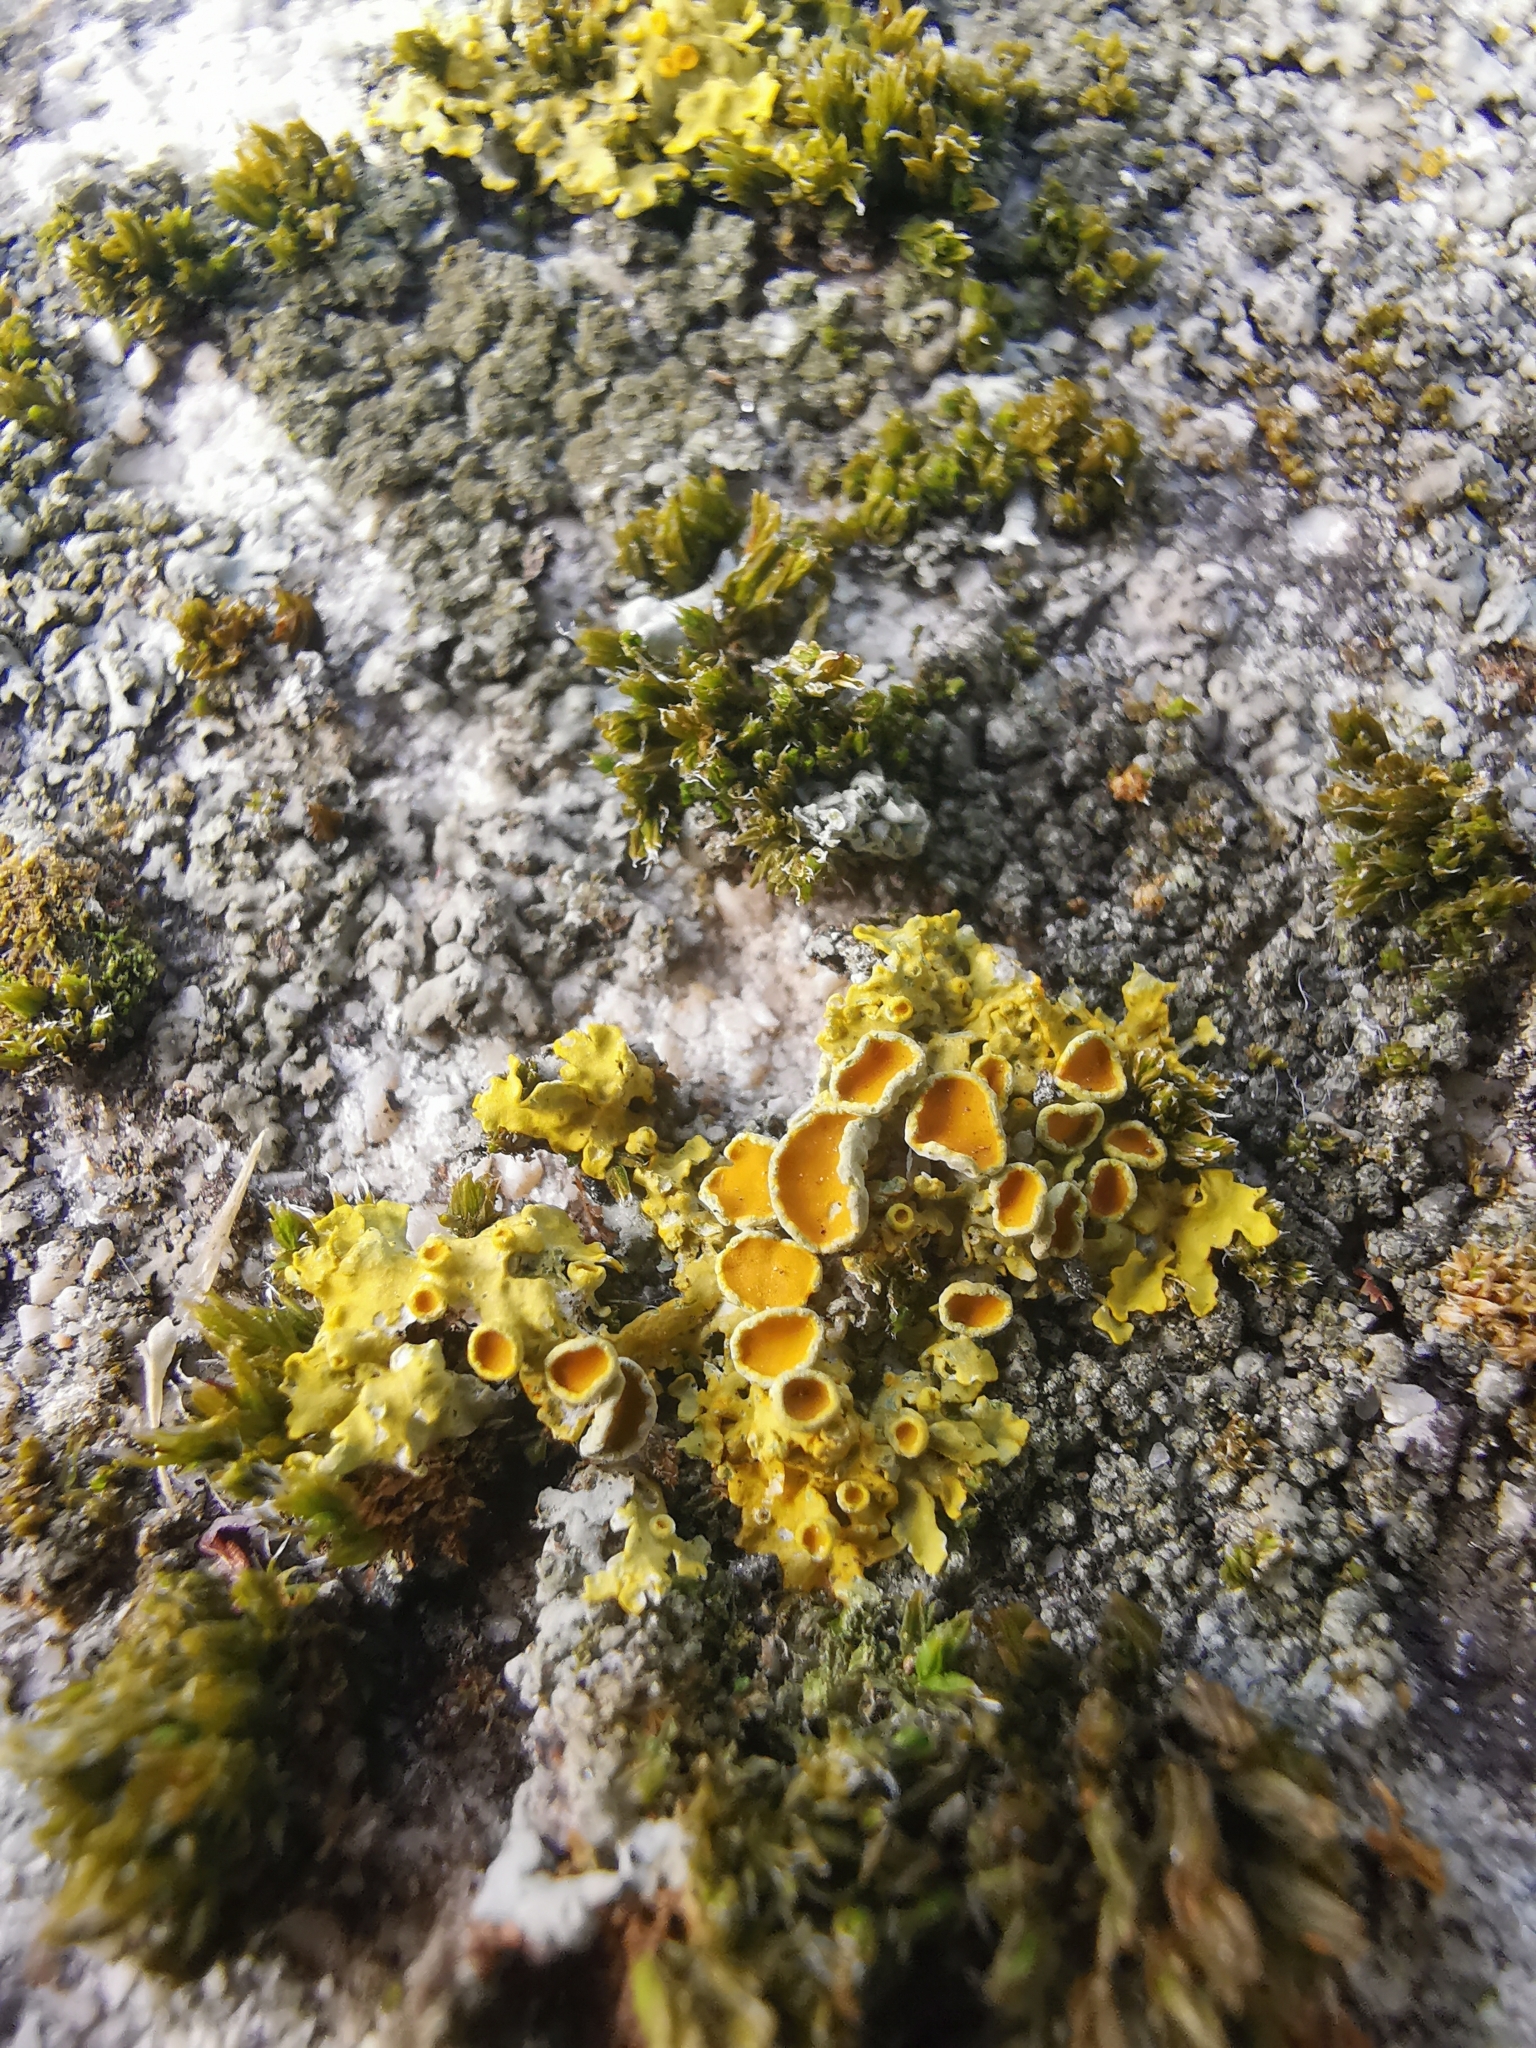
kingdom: Fungi
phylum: Ascomycota
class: Lecanoromycetes
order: Teloschistales
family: Teloschistaceae
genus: Xanthoria
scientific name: Xanthoria parietina
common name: Common orange lichen
